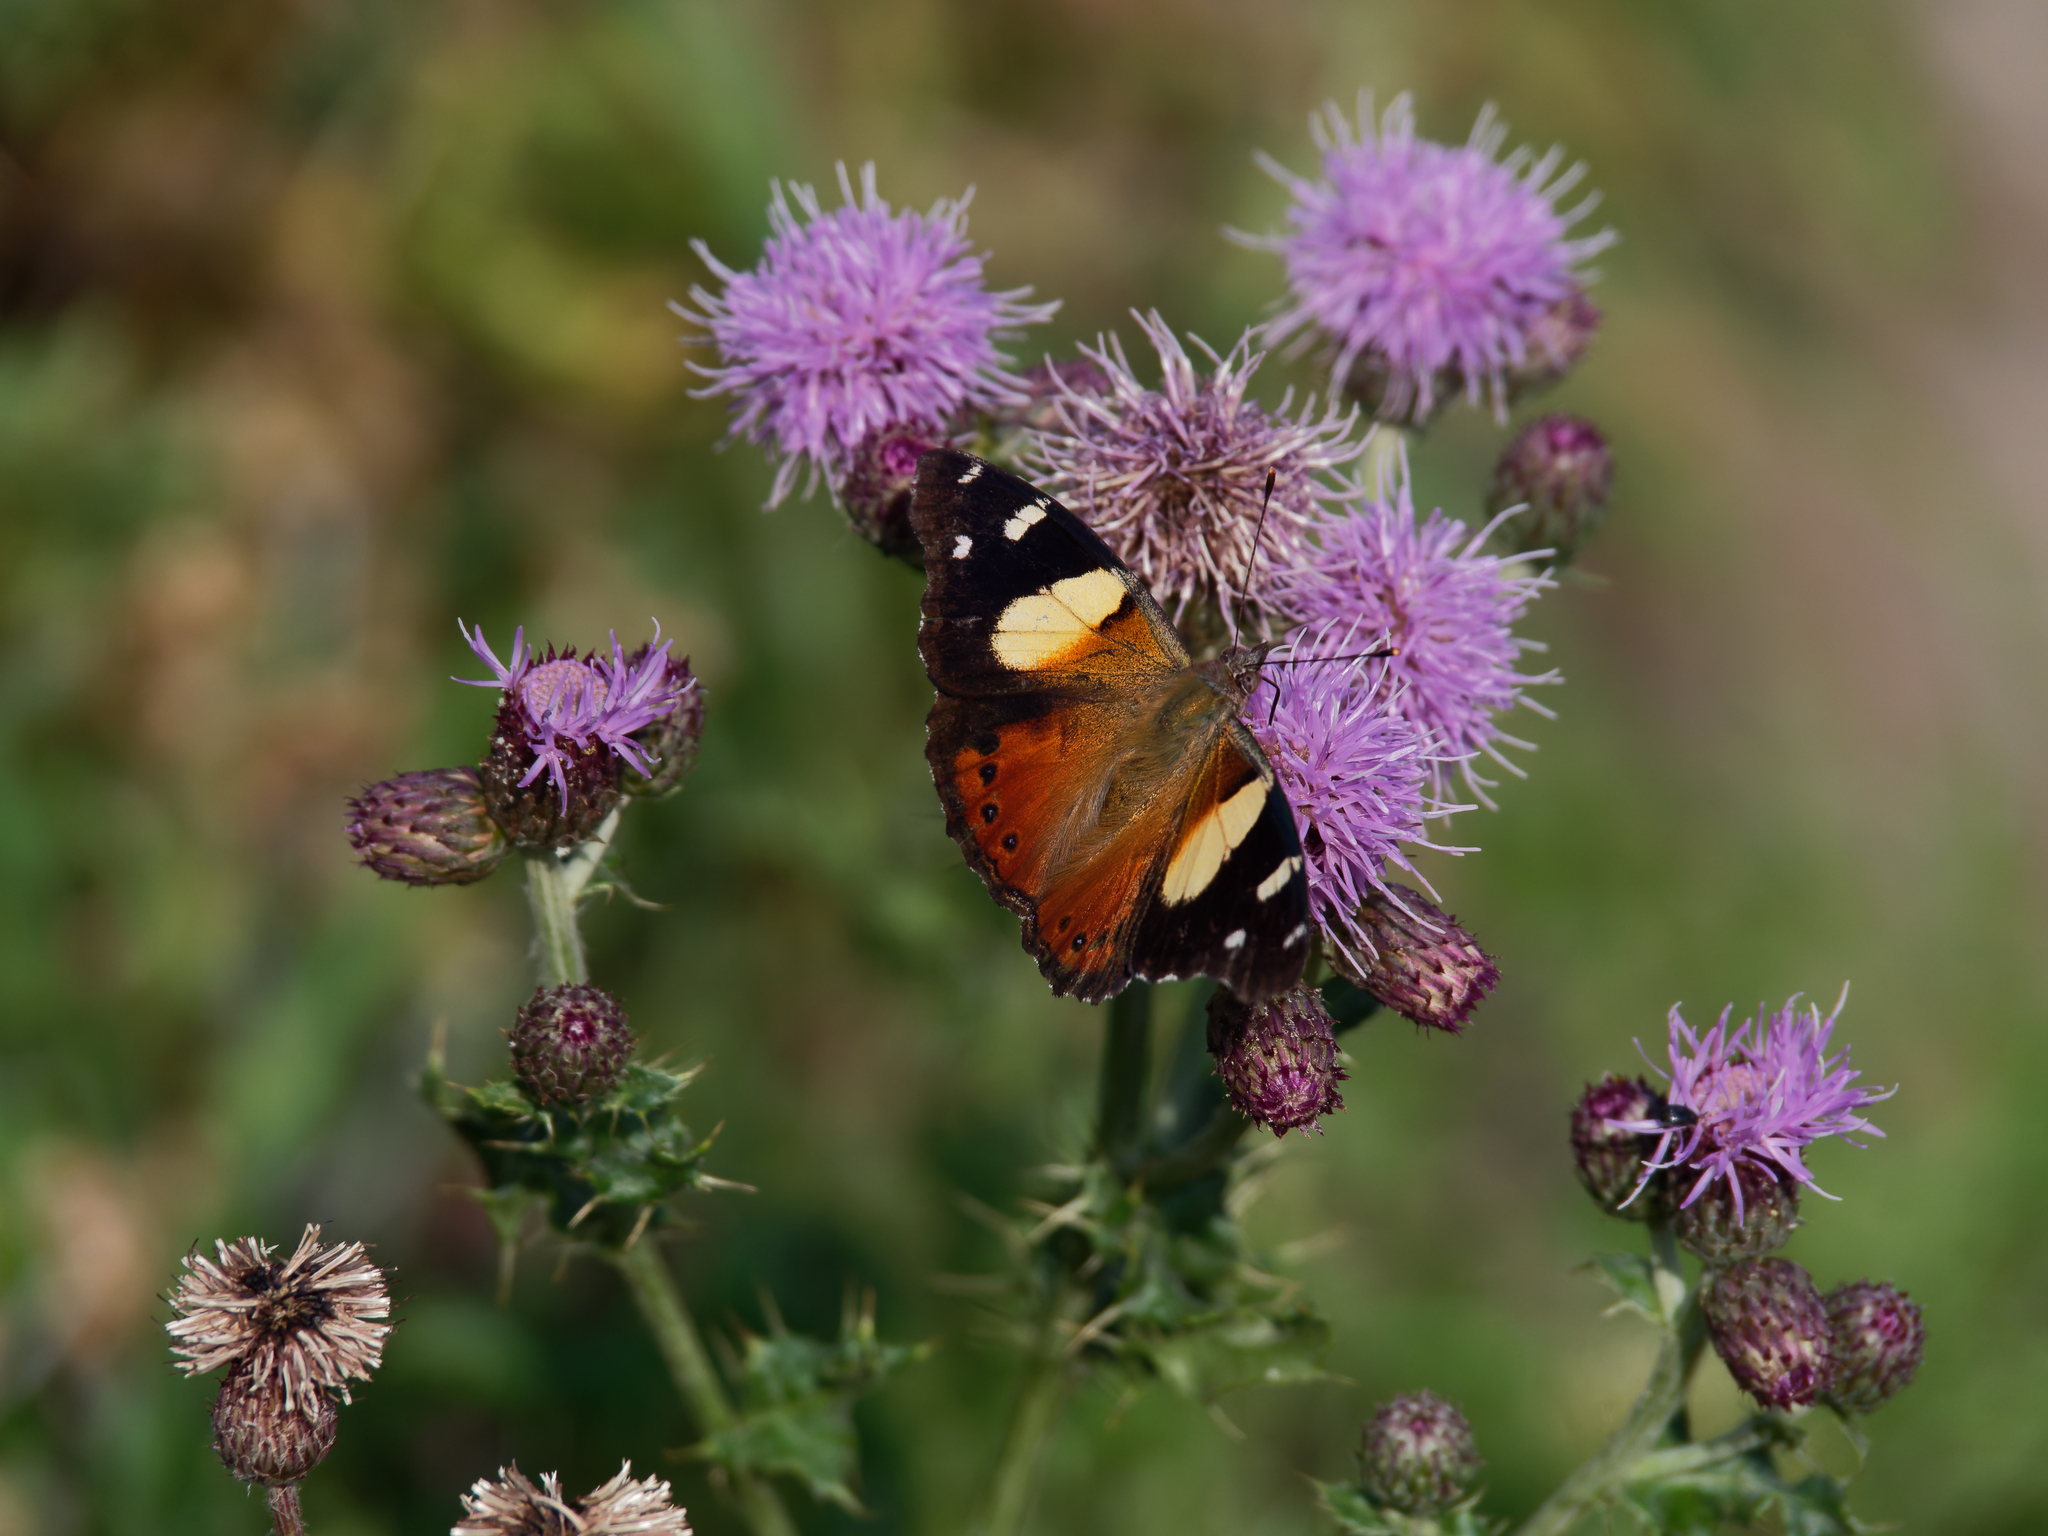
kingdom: Animalia
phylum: Arthropoda
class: Insecta
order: Lepidoptera
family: Nymphalidae
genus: Vanessa
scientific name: Vanessa itea
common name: Yellow admiral
